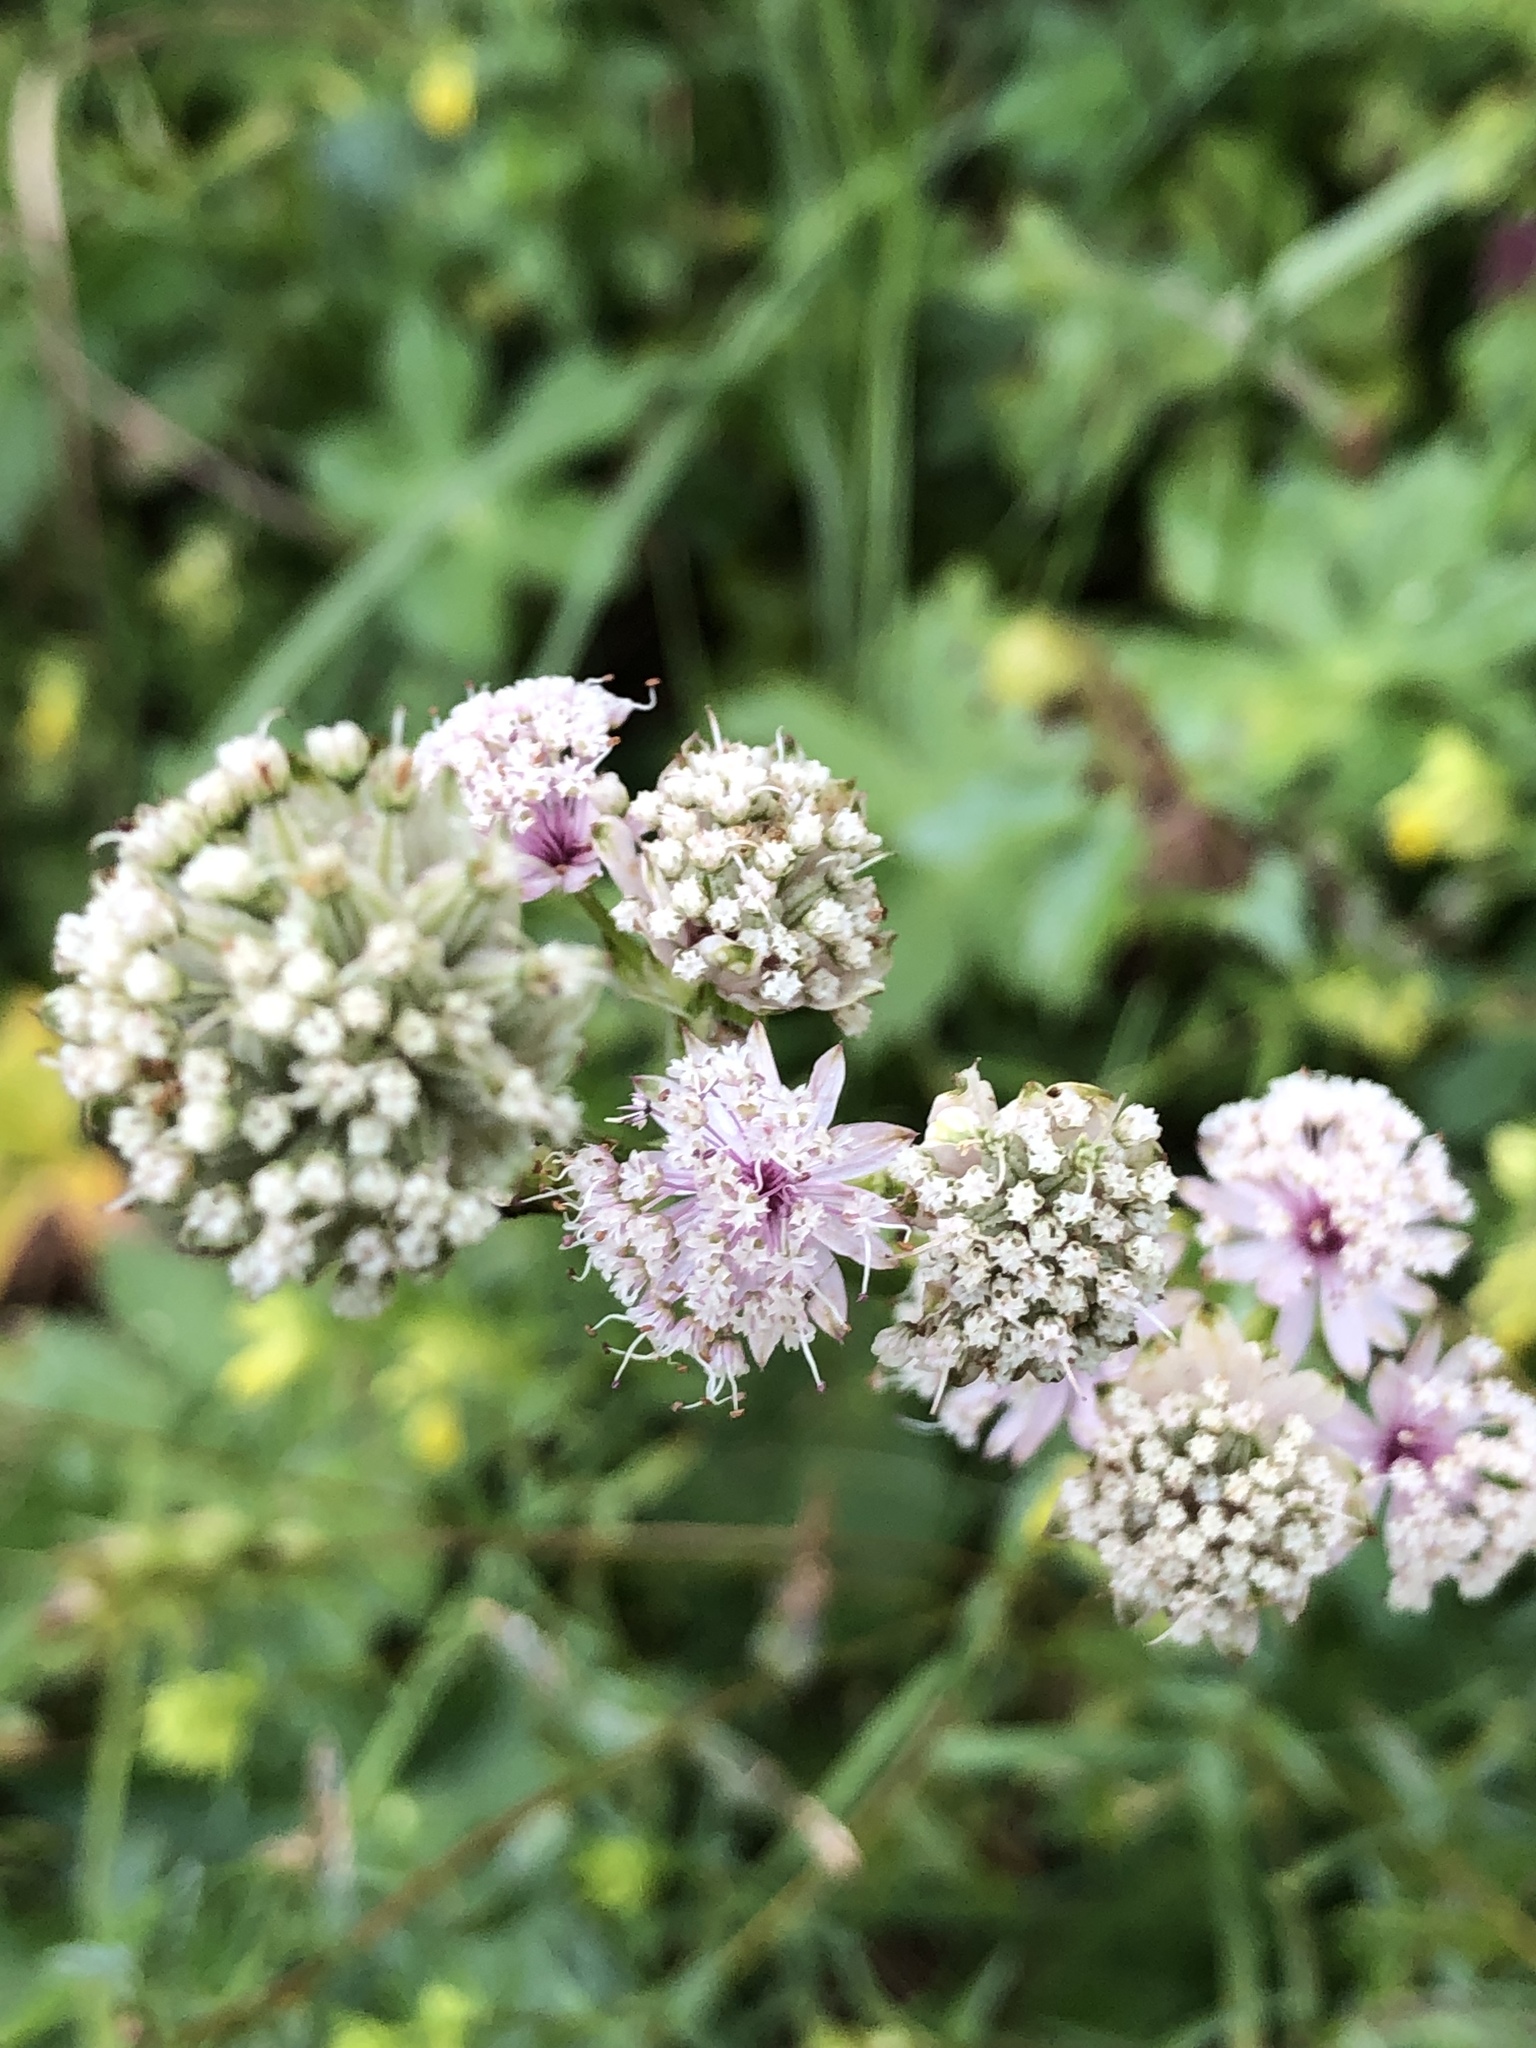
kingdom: Plantae
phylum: Tracheophyta
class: Magnoliopsida
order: Apiales
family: Apiaceae
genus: Astrantia
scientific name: Astrantia major
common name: Greater masterwort
